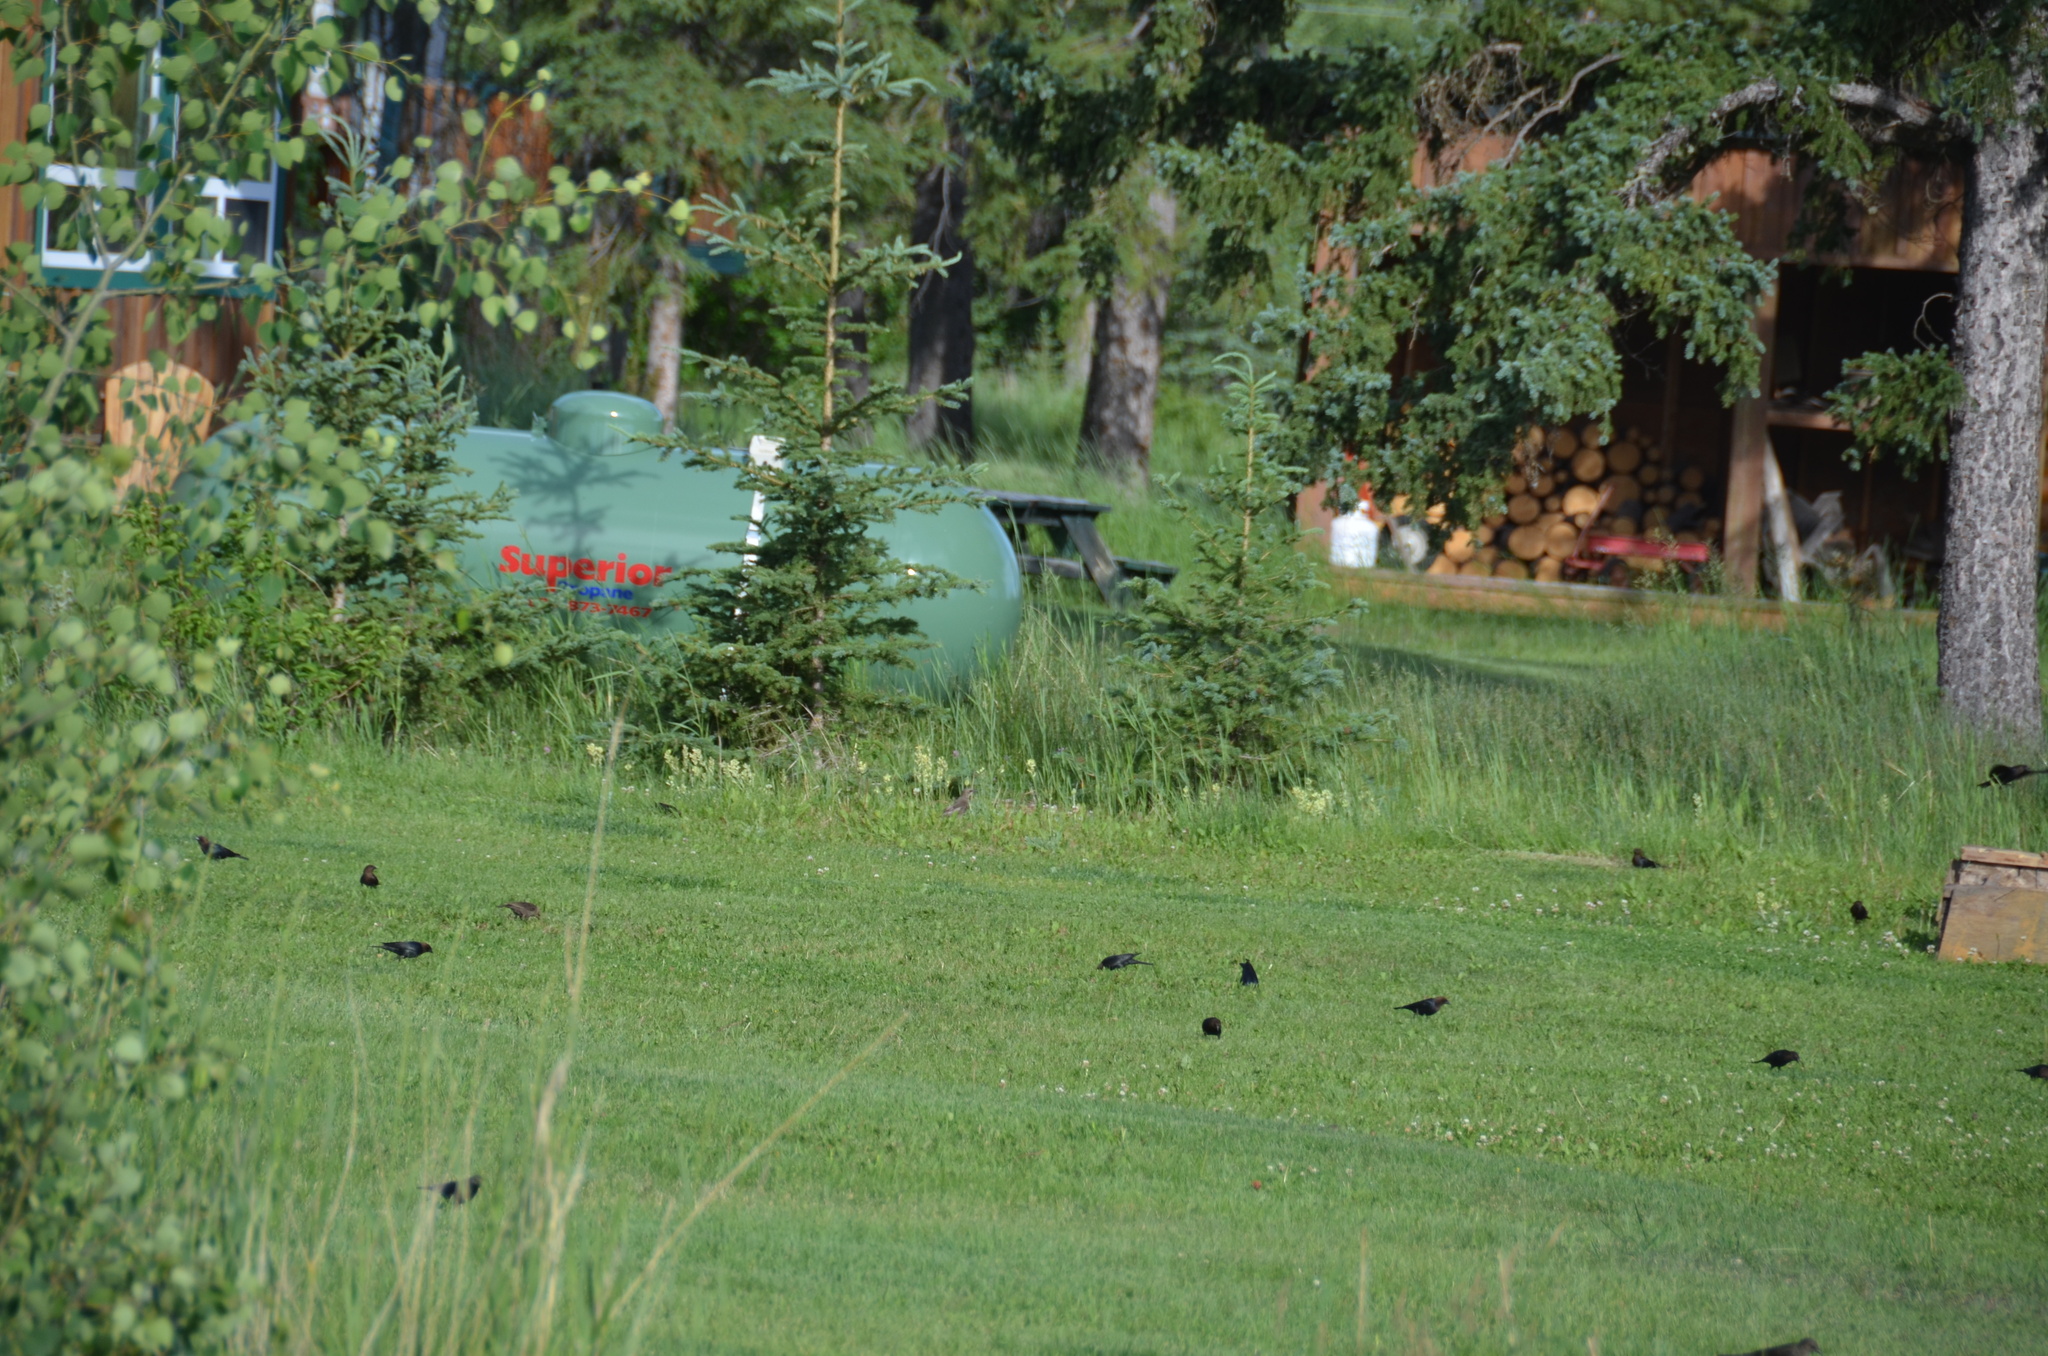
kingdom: Animalia
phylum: Chordata
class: Aves
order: Passeriformes
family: Sturnidae
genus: Sturnus
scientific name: Sturnus vulgaris
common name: Common starling
